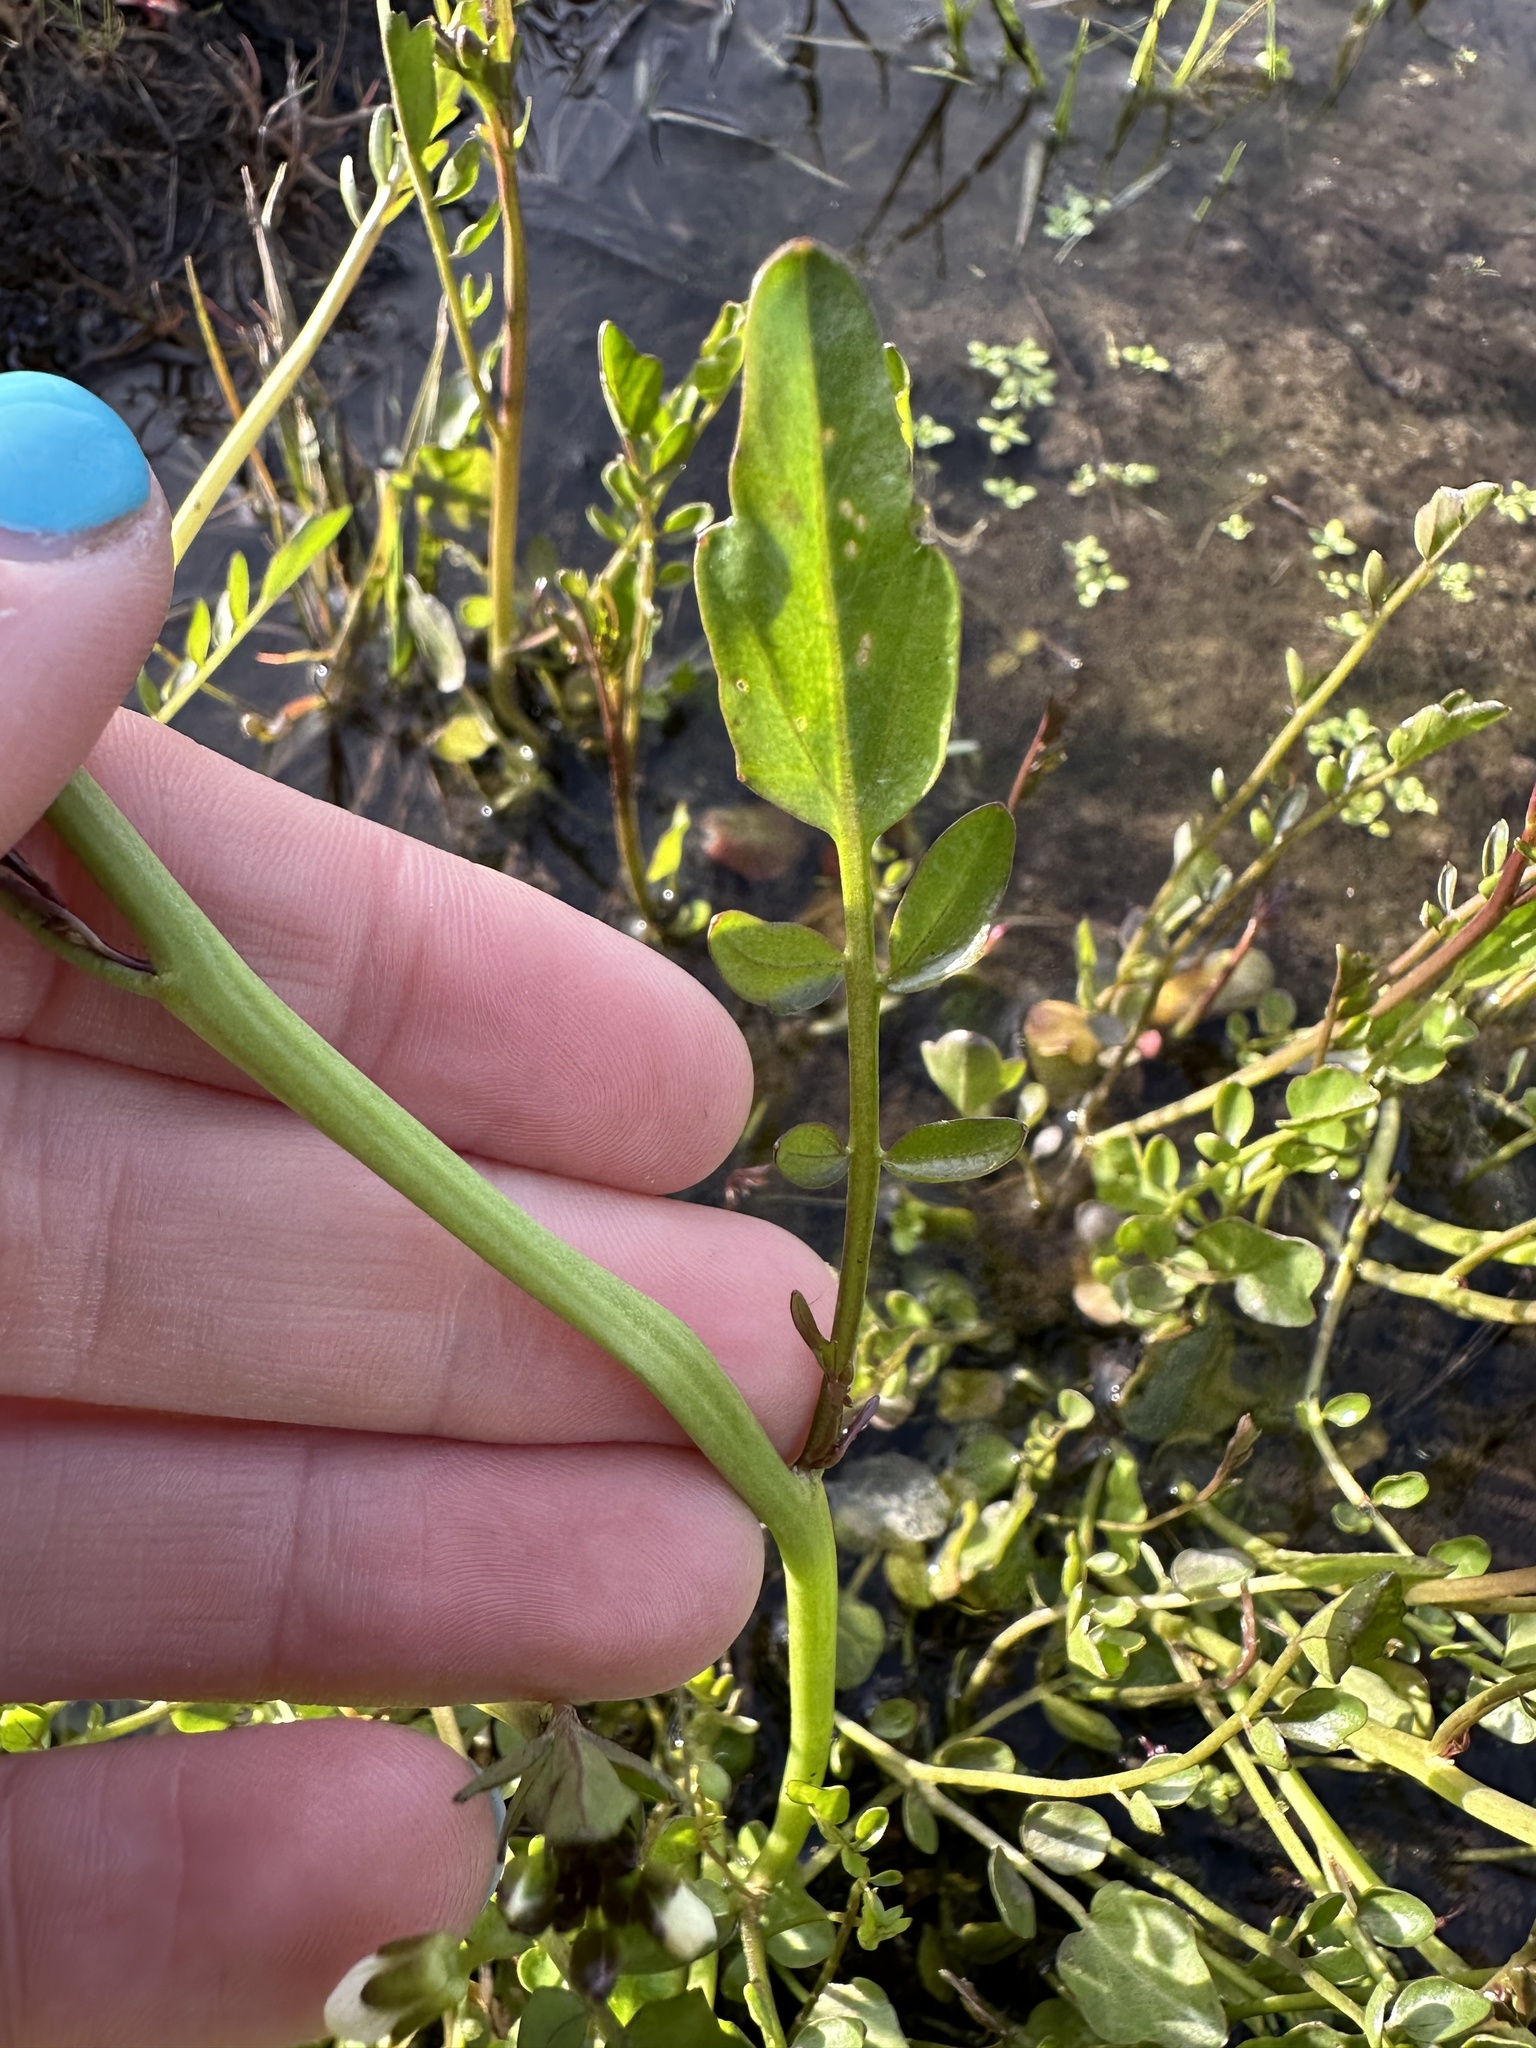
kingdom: Plantae
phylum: Tracheophyta
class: Magnoliopsida
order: Brassicales
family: Brassicaceae
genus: Cardamine
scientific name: Cardamine penduliflora
